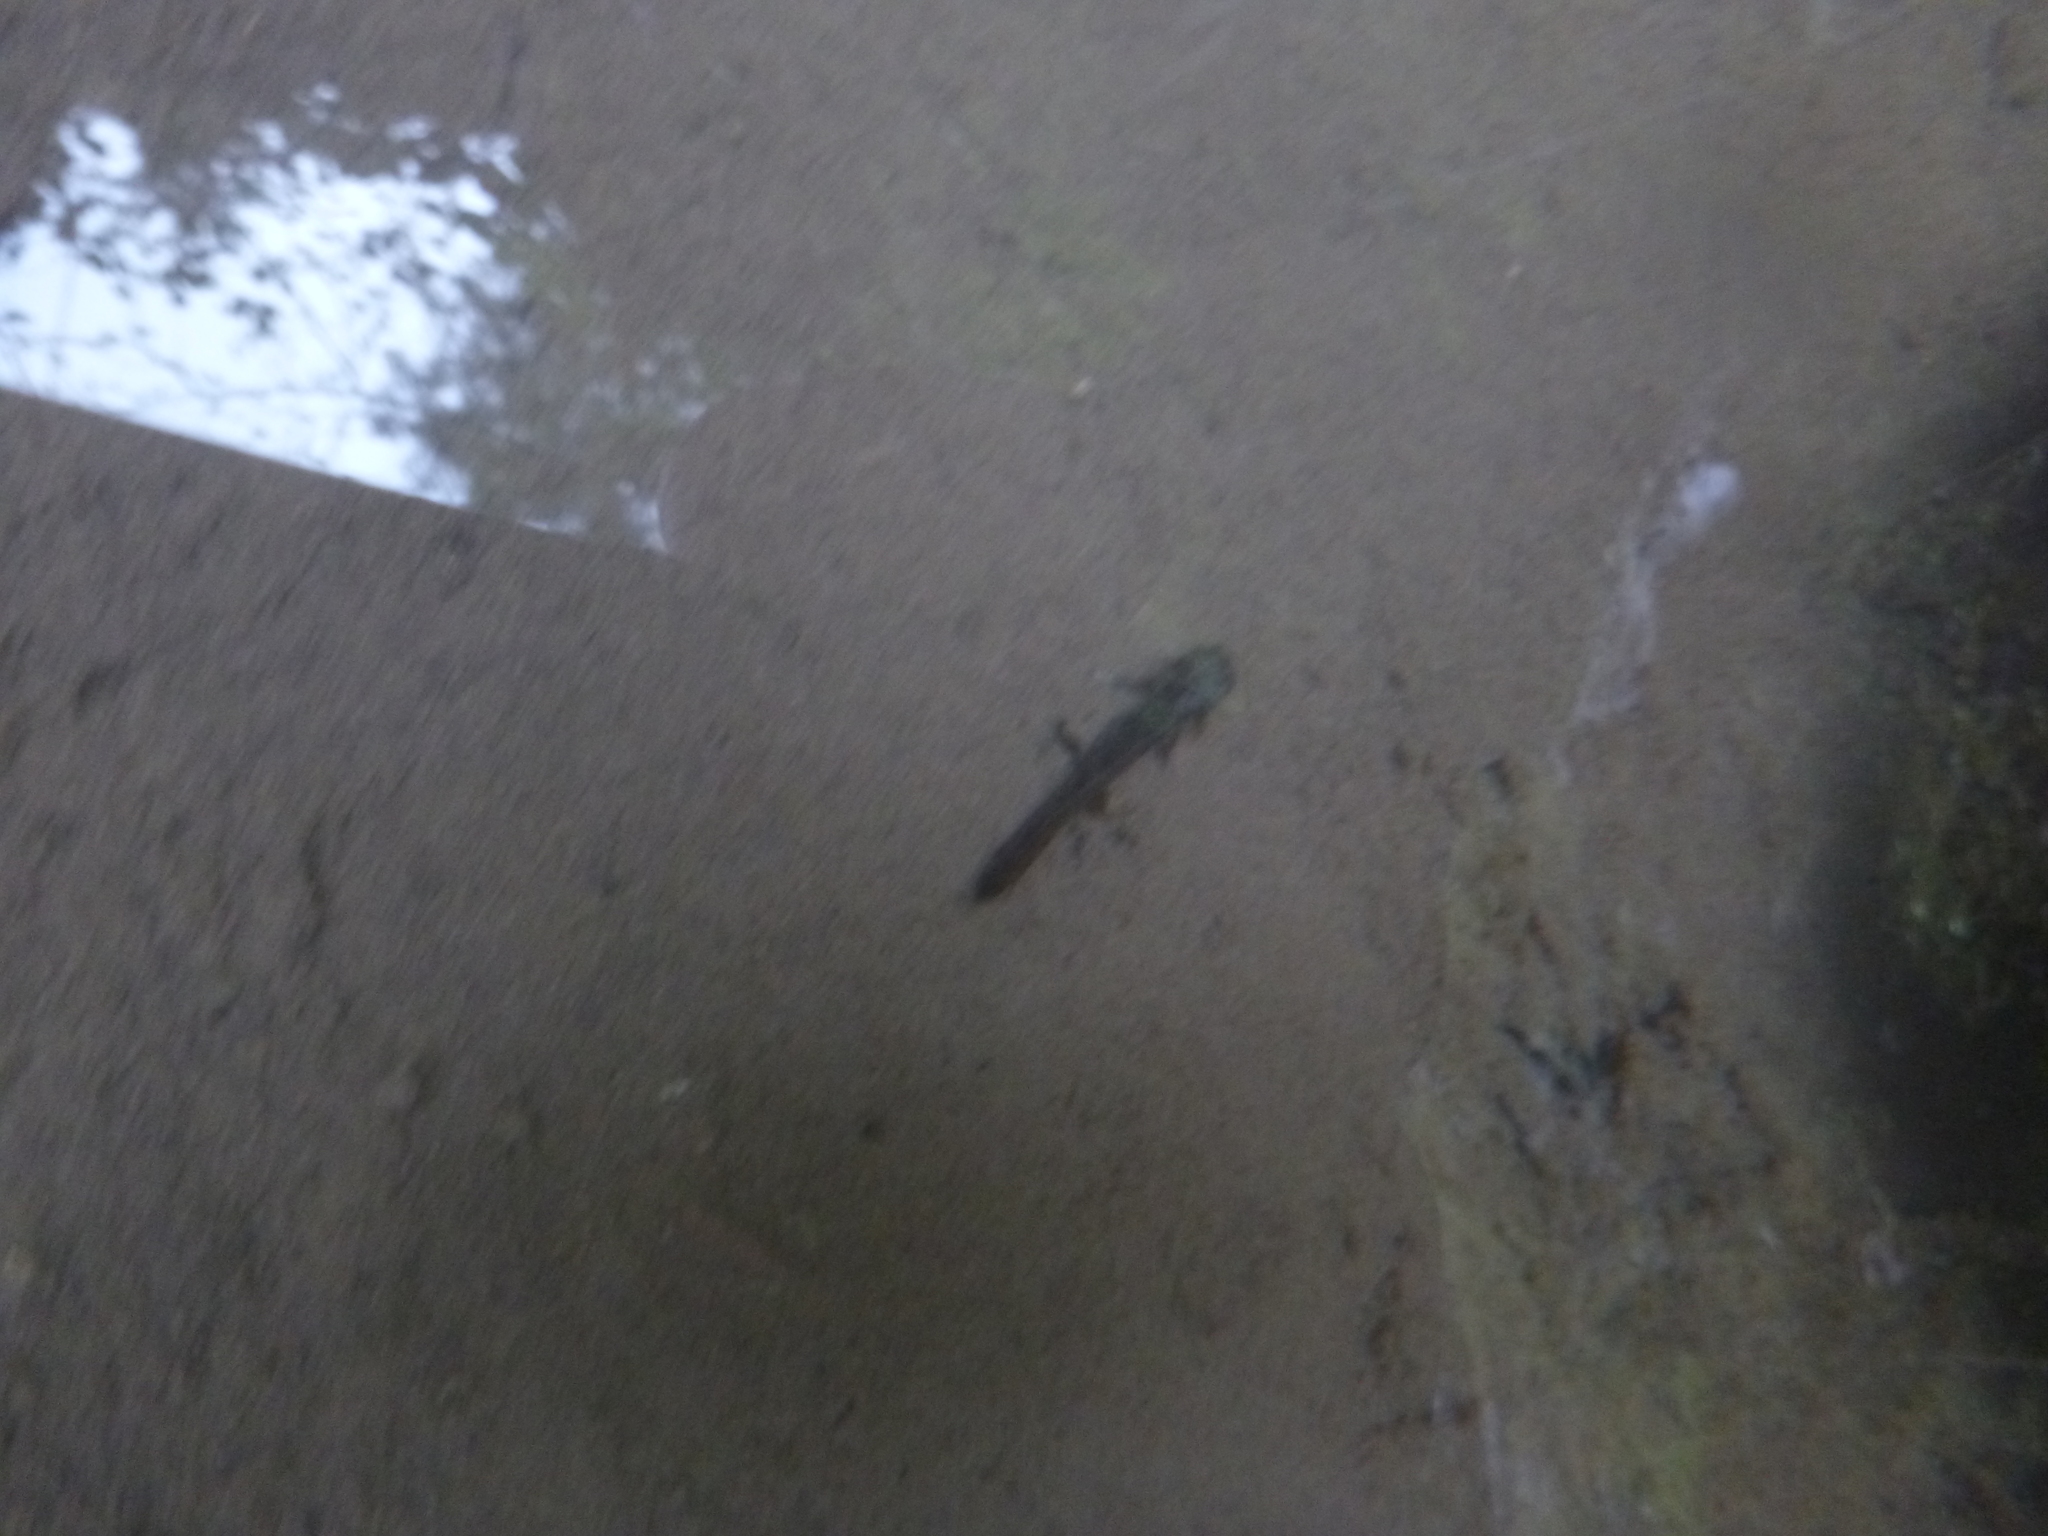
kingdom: Animalia
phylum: Chordata
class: Amphibia
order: Caudata
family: Salamandridae
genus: Salamandra
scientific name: Salamandra salamandra
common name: Fire salamander
